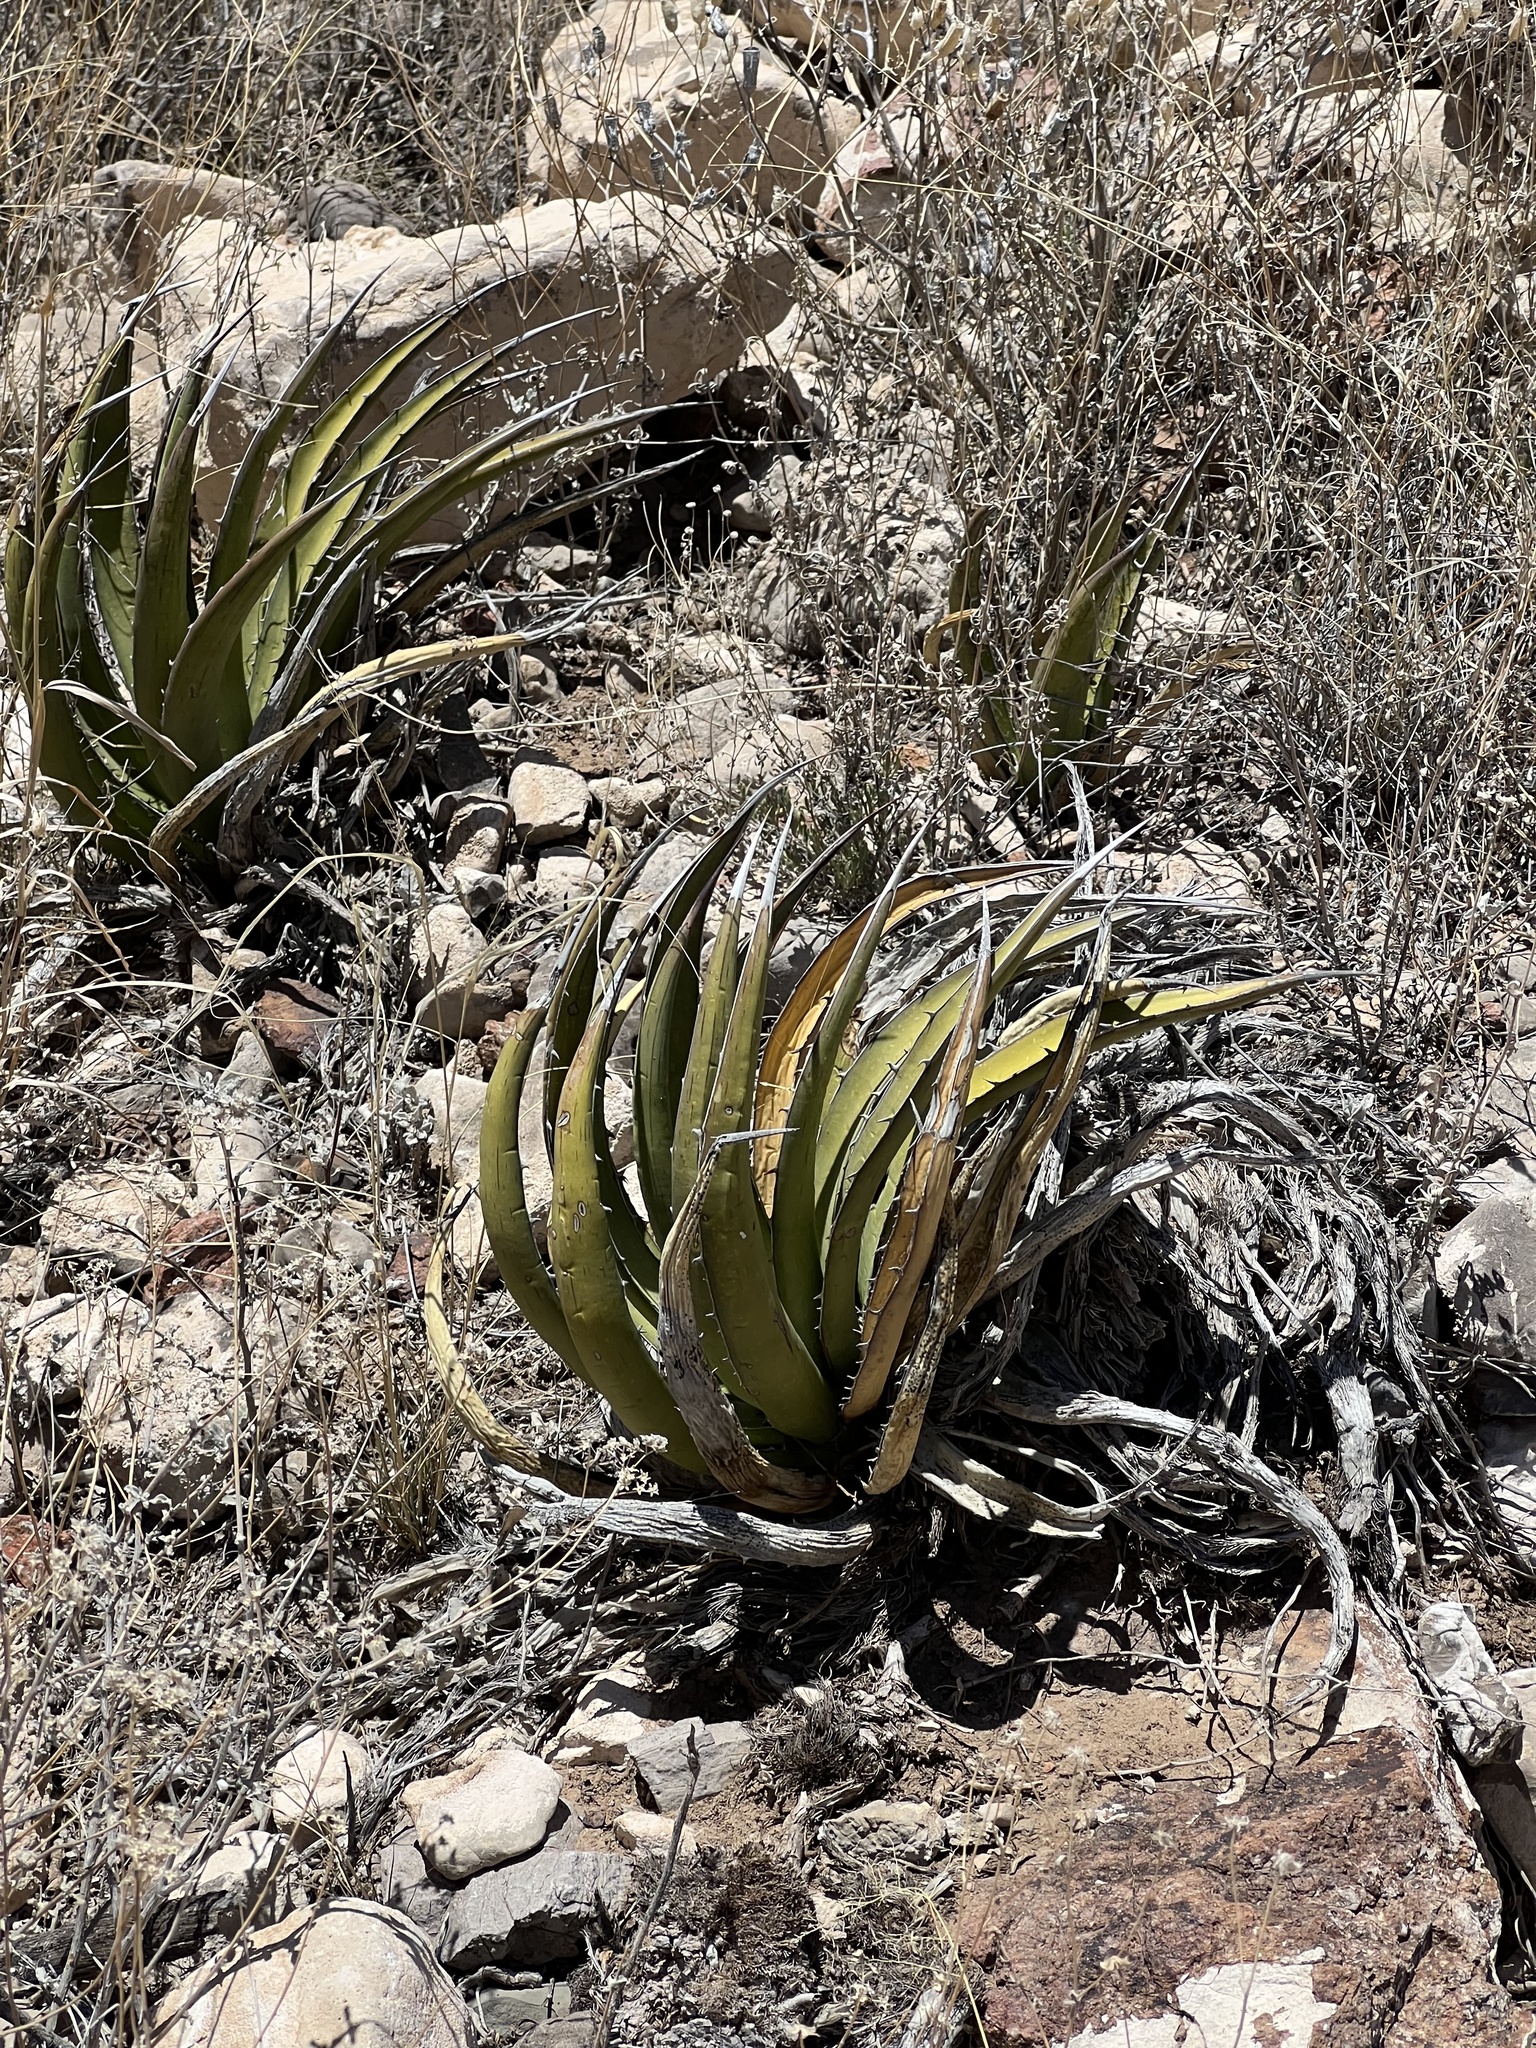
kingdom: Plantae
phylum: Tracheophyta
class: Liliopsida
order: Asparagales
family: Asparagaceae
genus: Agave
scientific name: Agave lechuguilla
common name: Lecheguilla agave
